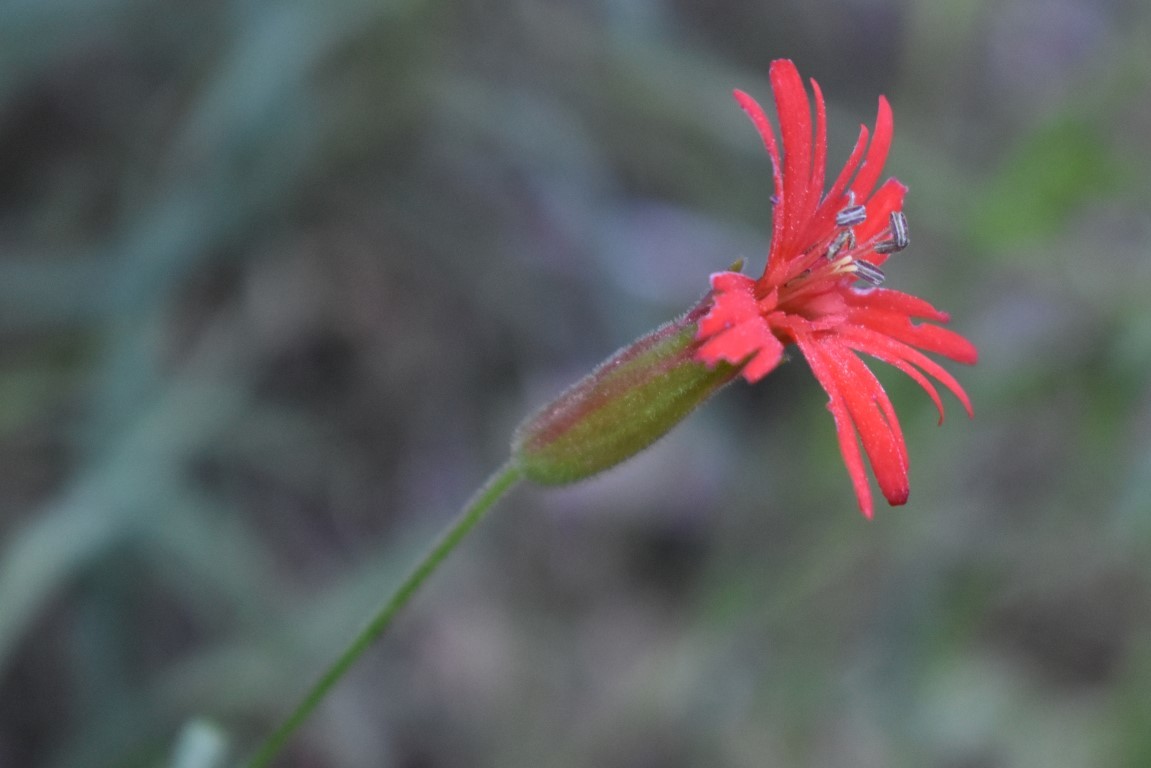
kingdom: Plantae
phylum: Tracheophyta
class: Magnoliopsida
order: Caryophyllales
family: Caryophyllaceae
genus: Silene
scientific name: Silene laciniata
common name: Indian-pink
